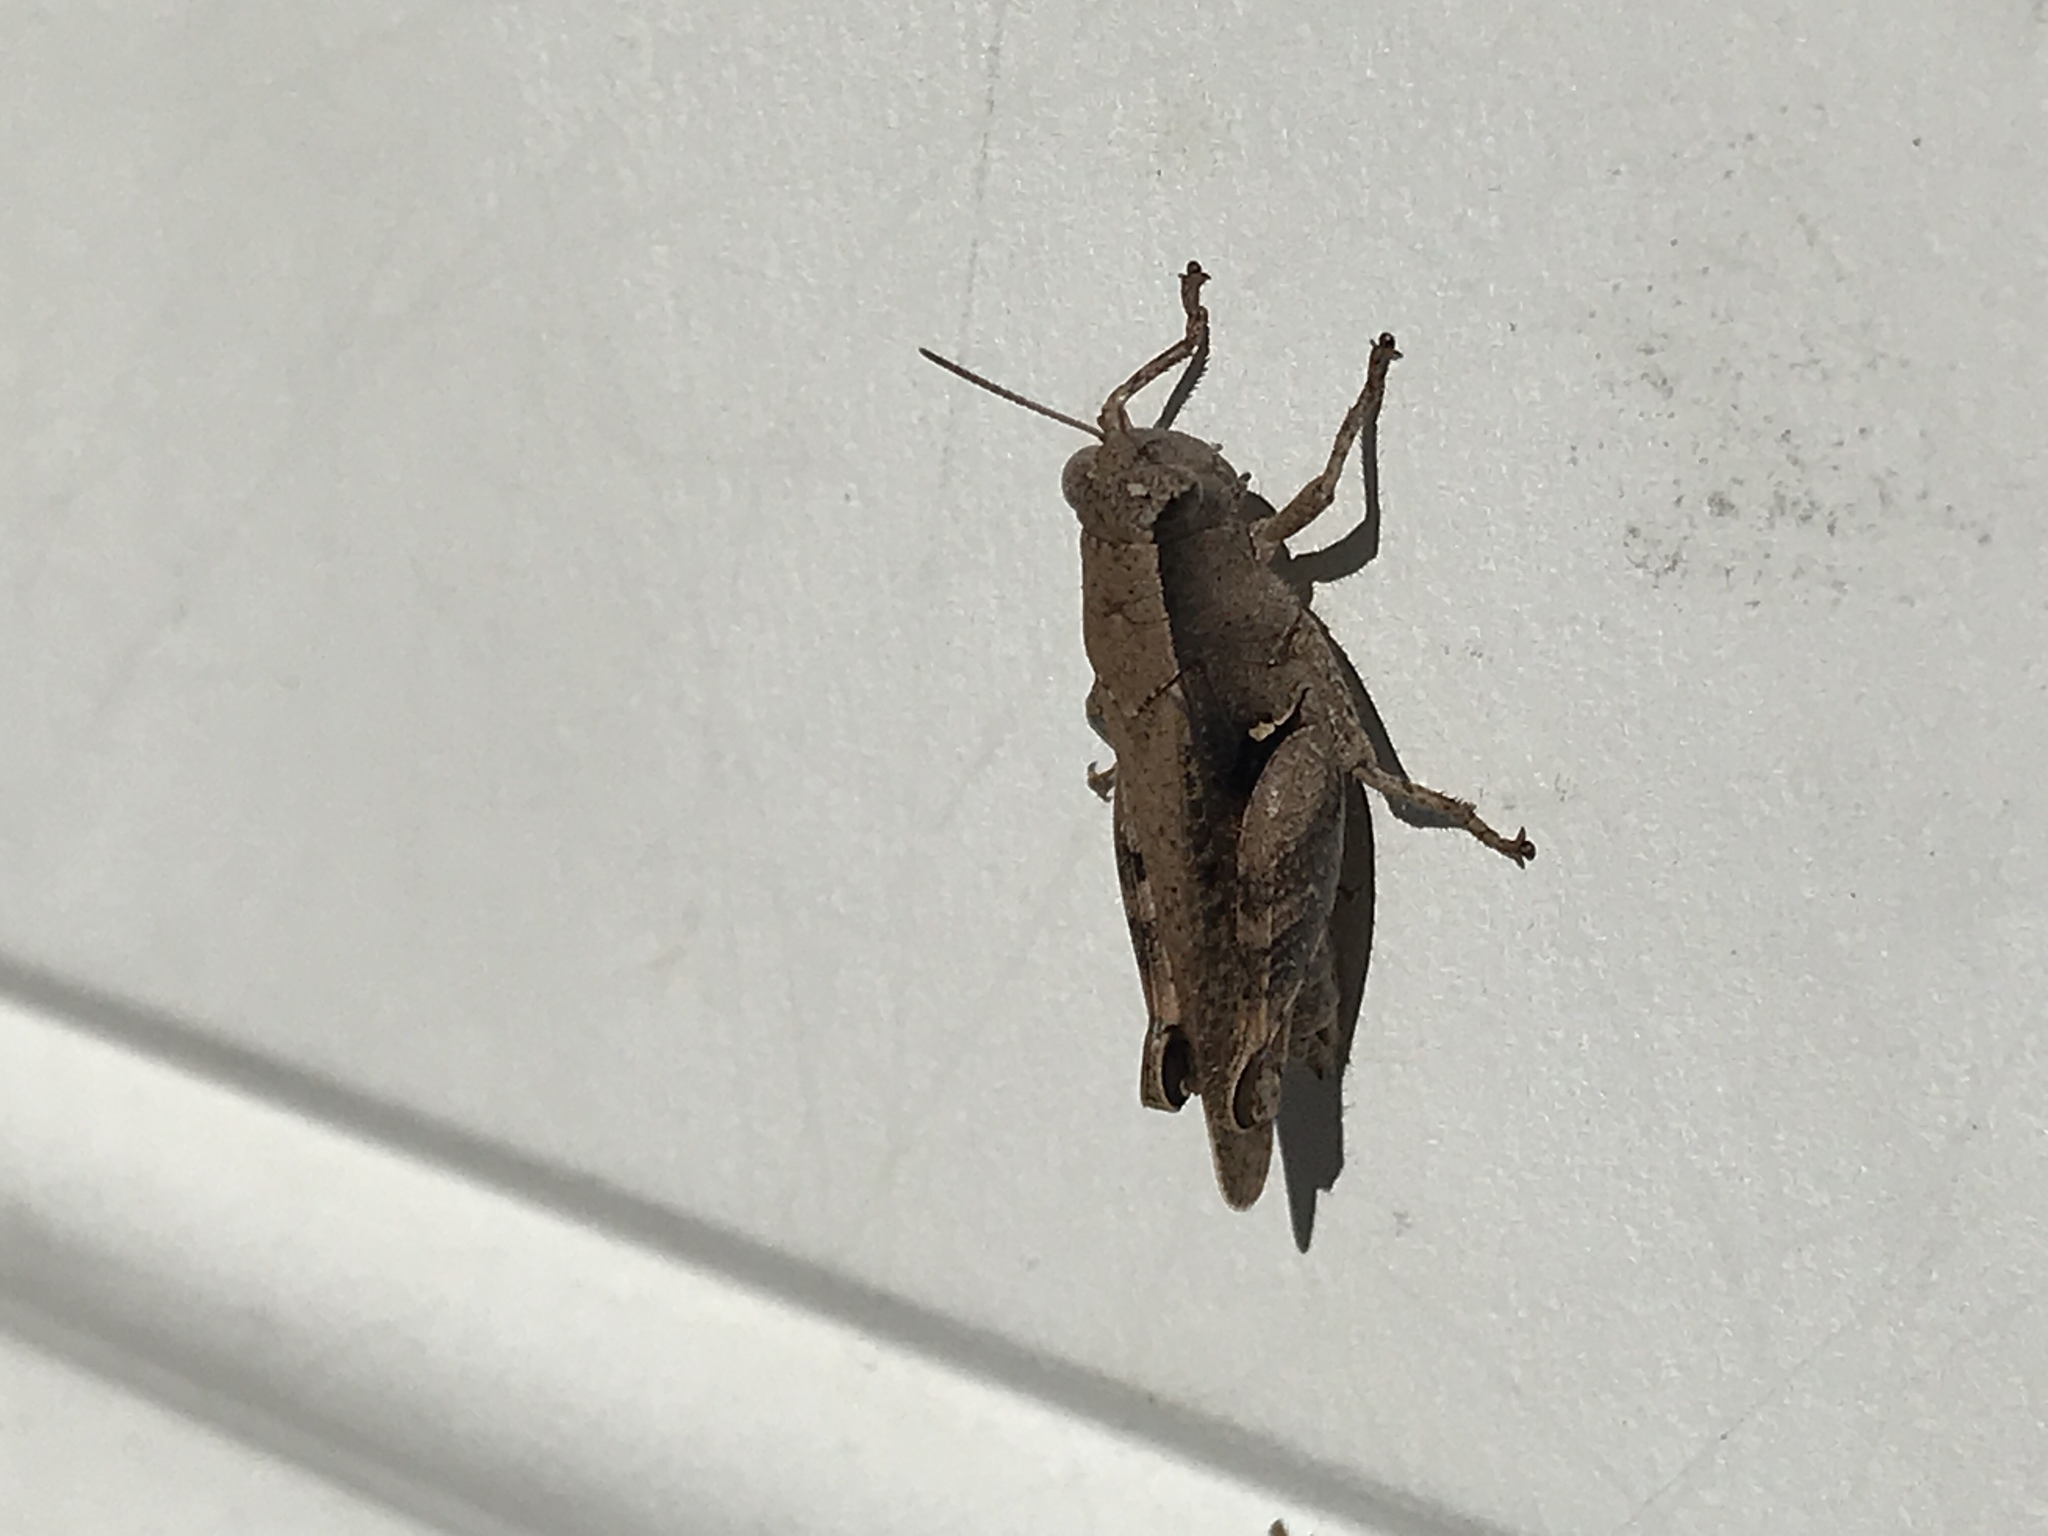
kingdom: Animalia
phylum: Arthropoda
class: Insecta
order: Orthoptera
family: Acrididae
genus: Aidemona
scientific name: Aidemona azteca
